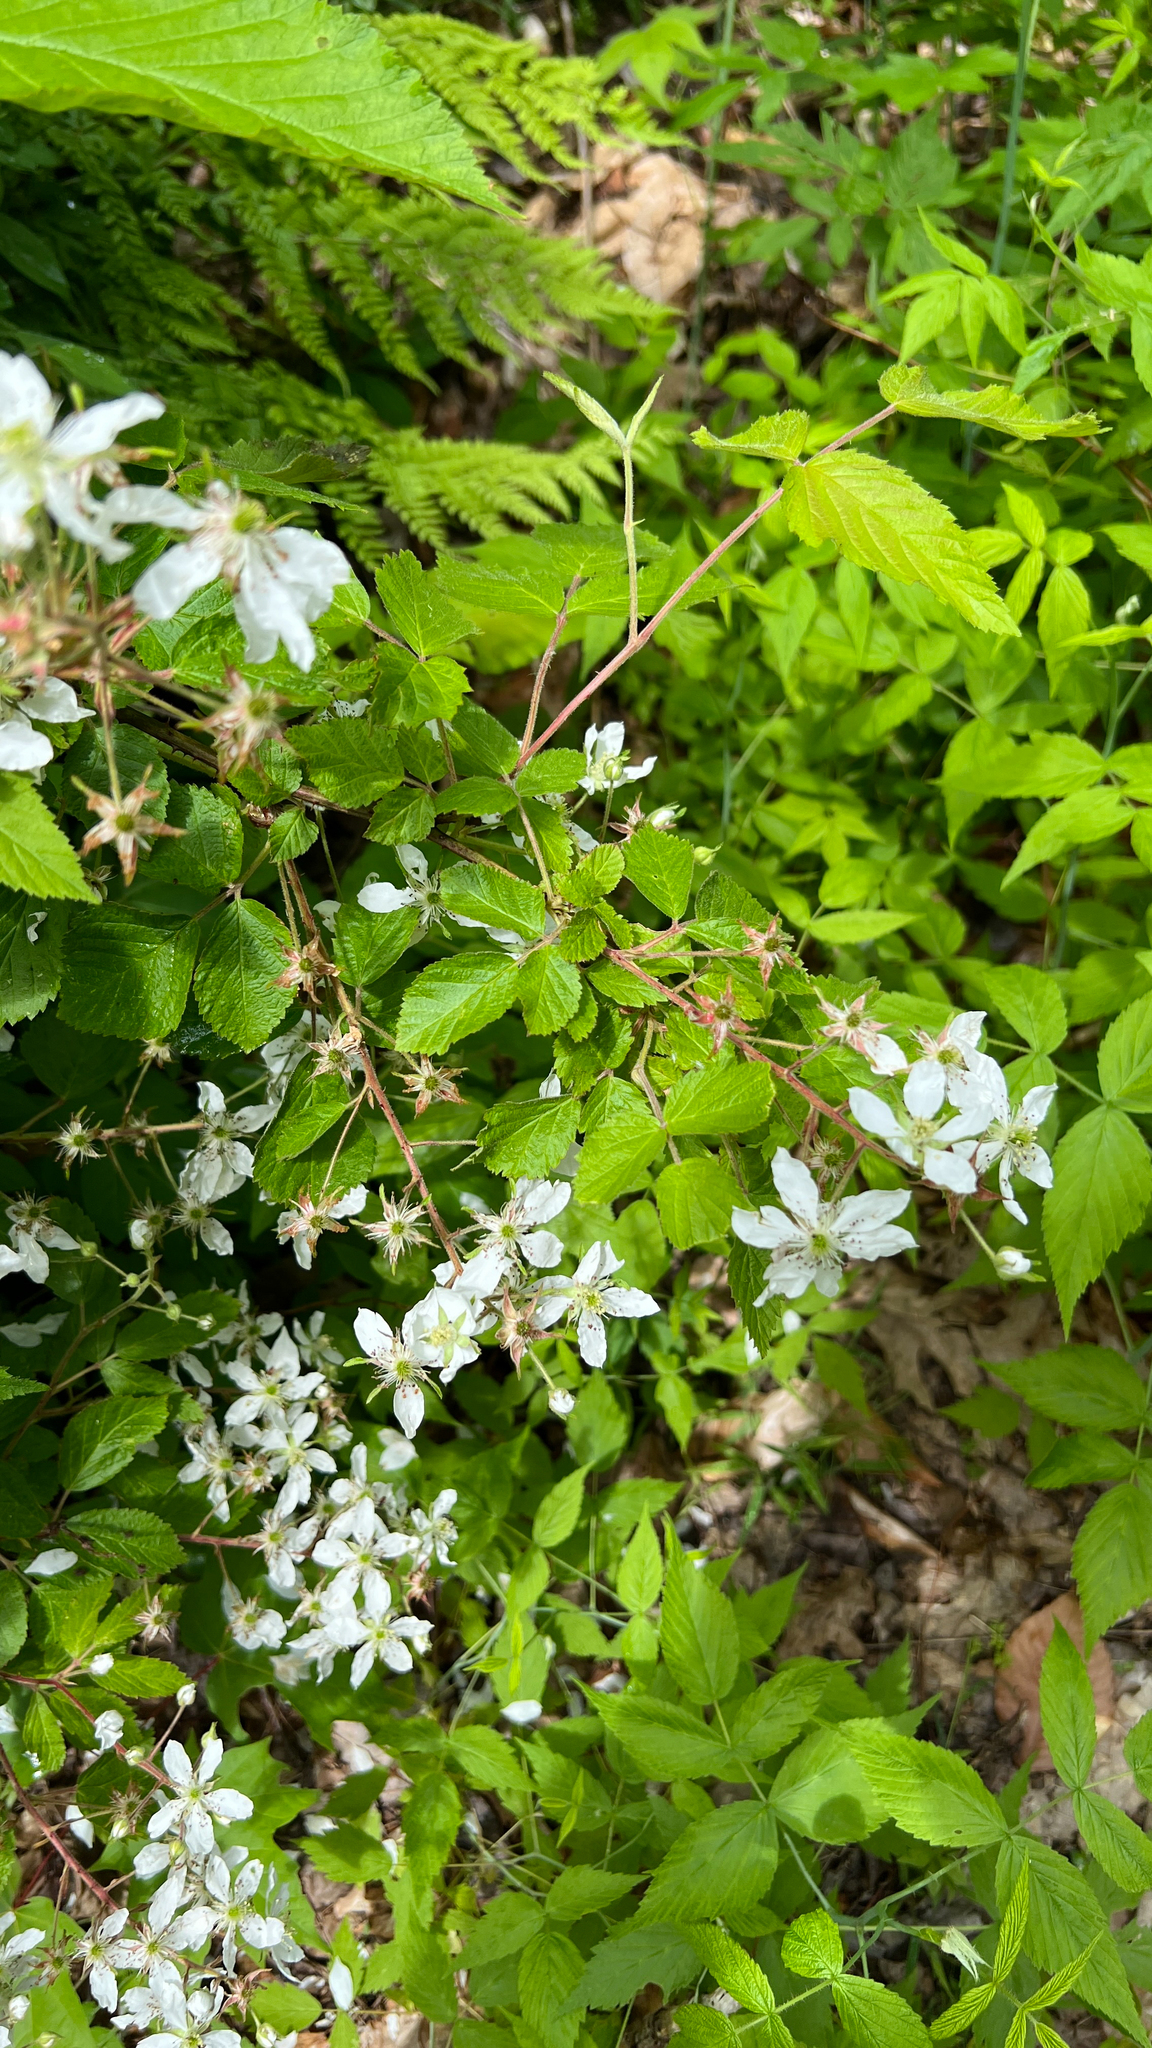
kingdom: Plantae
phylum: Tracheophyta
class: Magnoliopsida
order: Rosales
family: Rosaceae
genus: Rubus
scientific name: Rubus allegheniensis
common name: Allegheny blackberry
